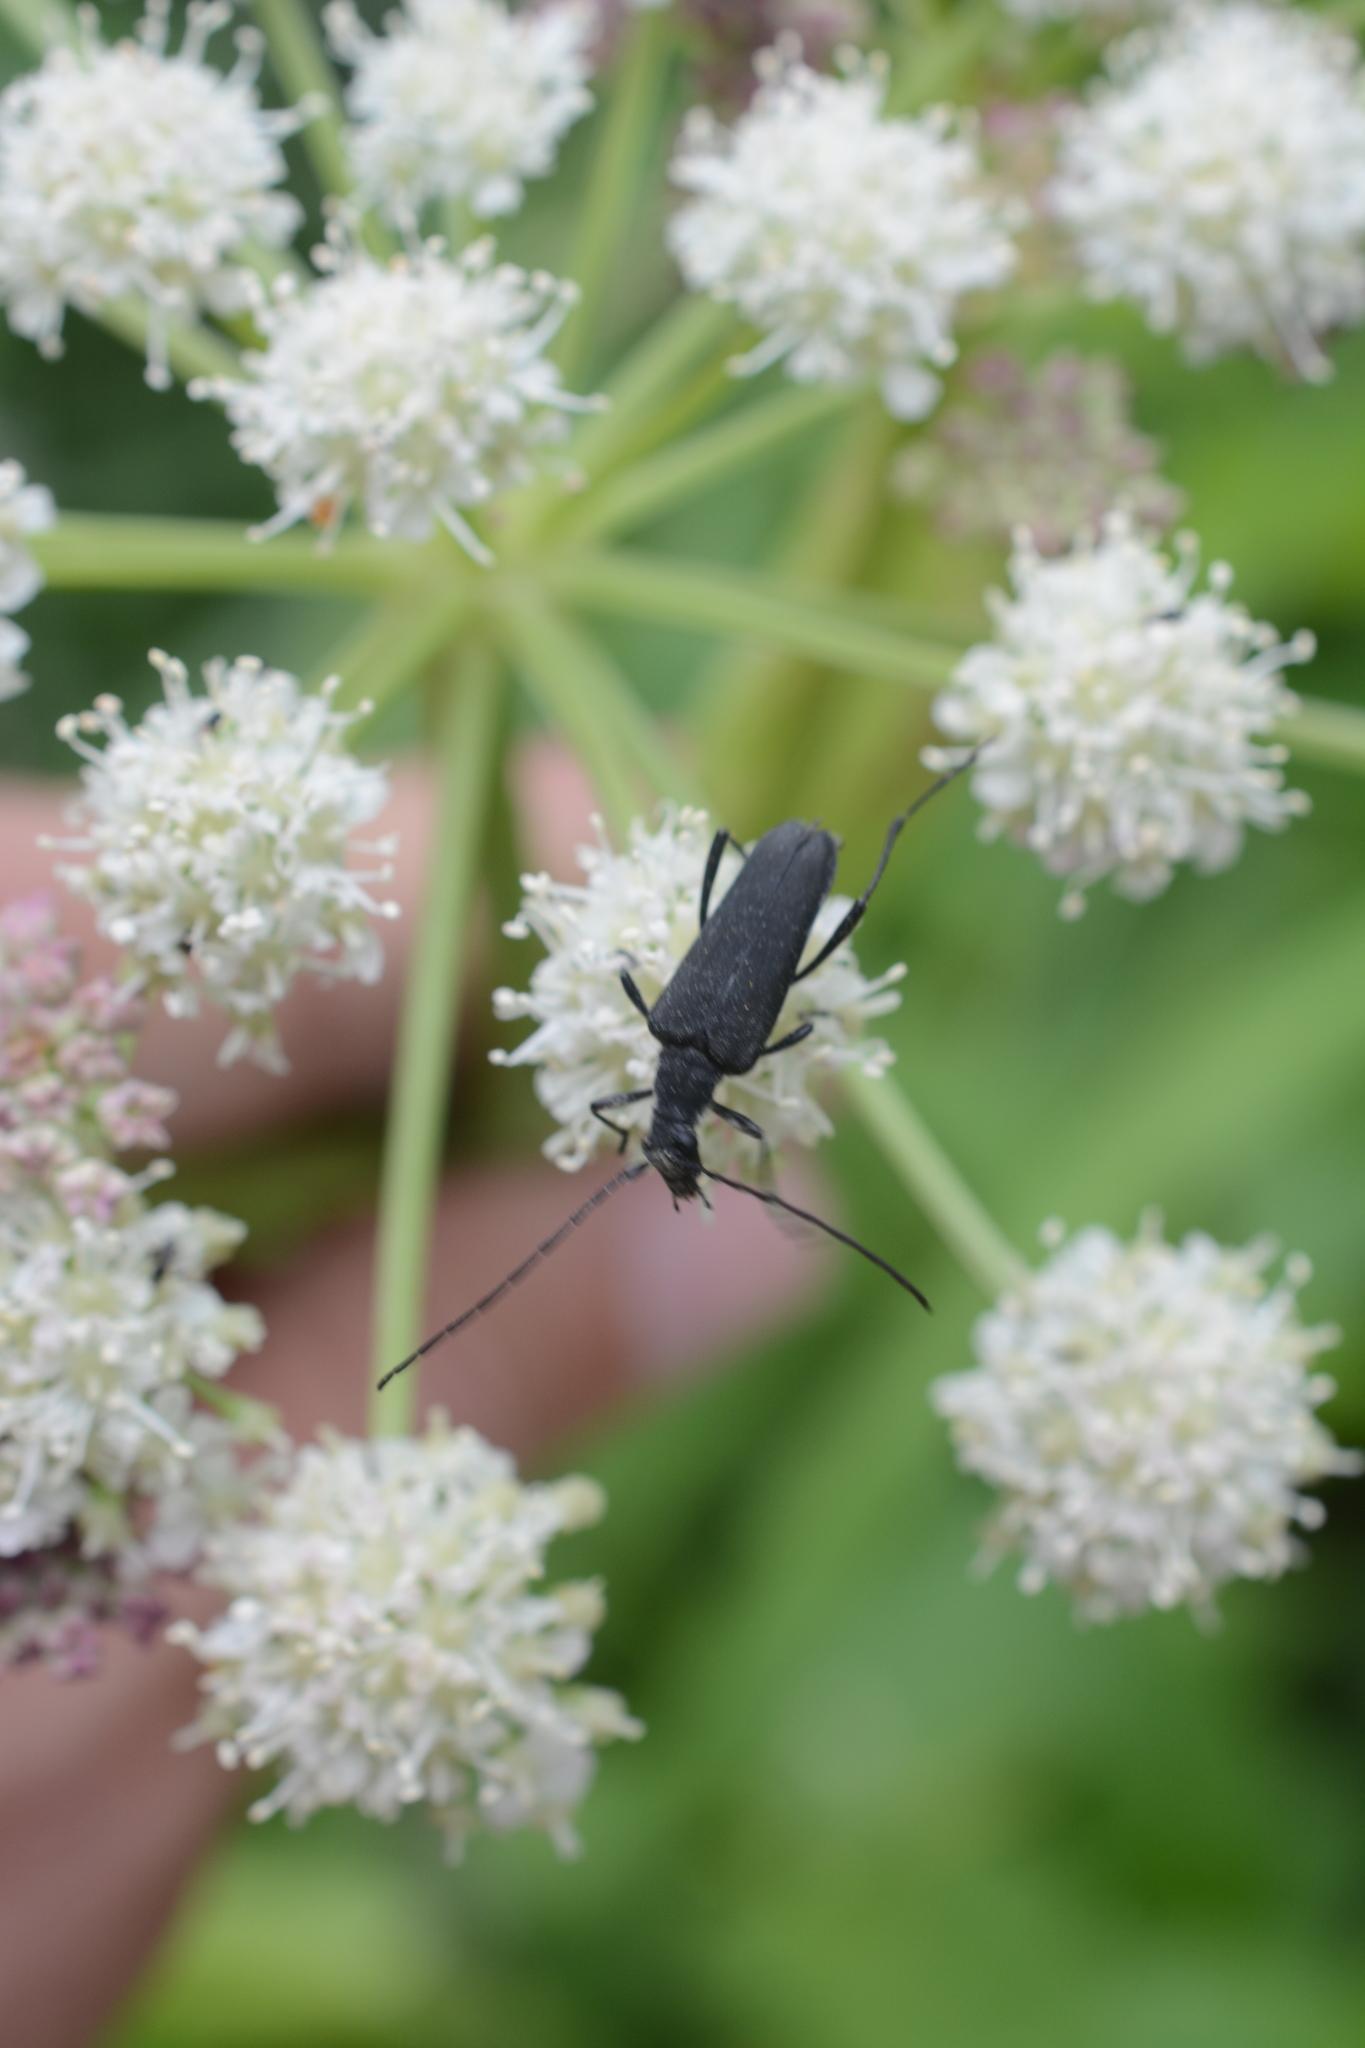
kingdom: Animalia
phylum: Arthropoda
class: Insecta
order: Coleoptera
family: Cerambycidae
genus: Trachysida
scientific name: Trachysida aspera
